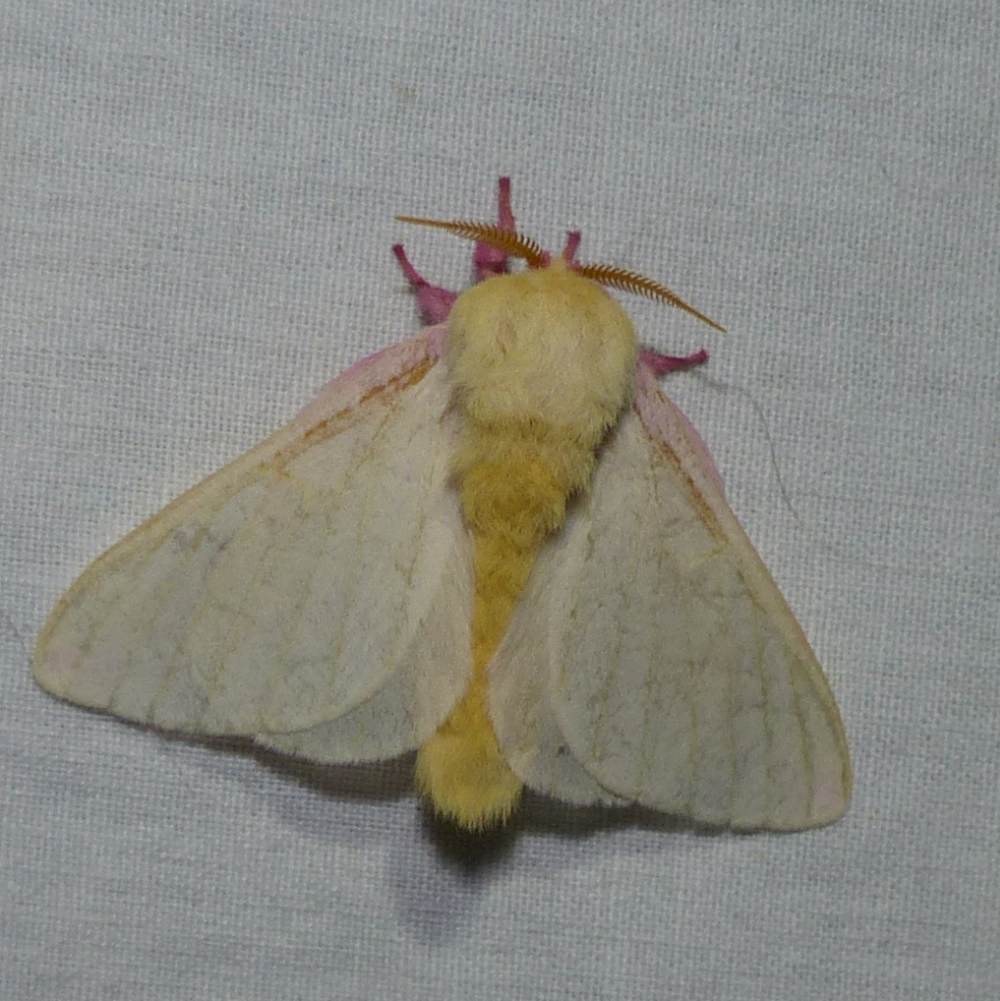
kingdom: Animalia
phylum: Arthropoda
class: Insecta
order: Lepidoptera
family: Saturniidae
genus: Dryocampa
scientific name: Dryocampa rubicunda
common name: Rosy maple moth
